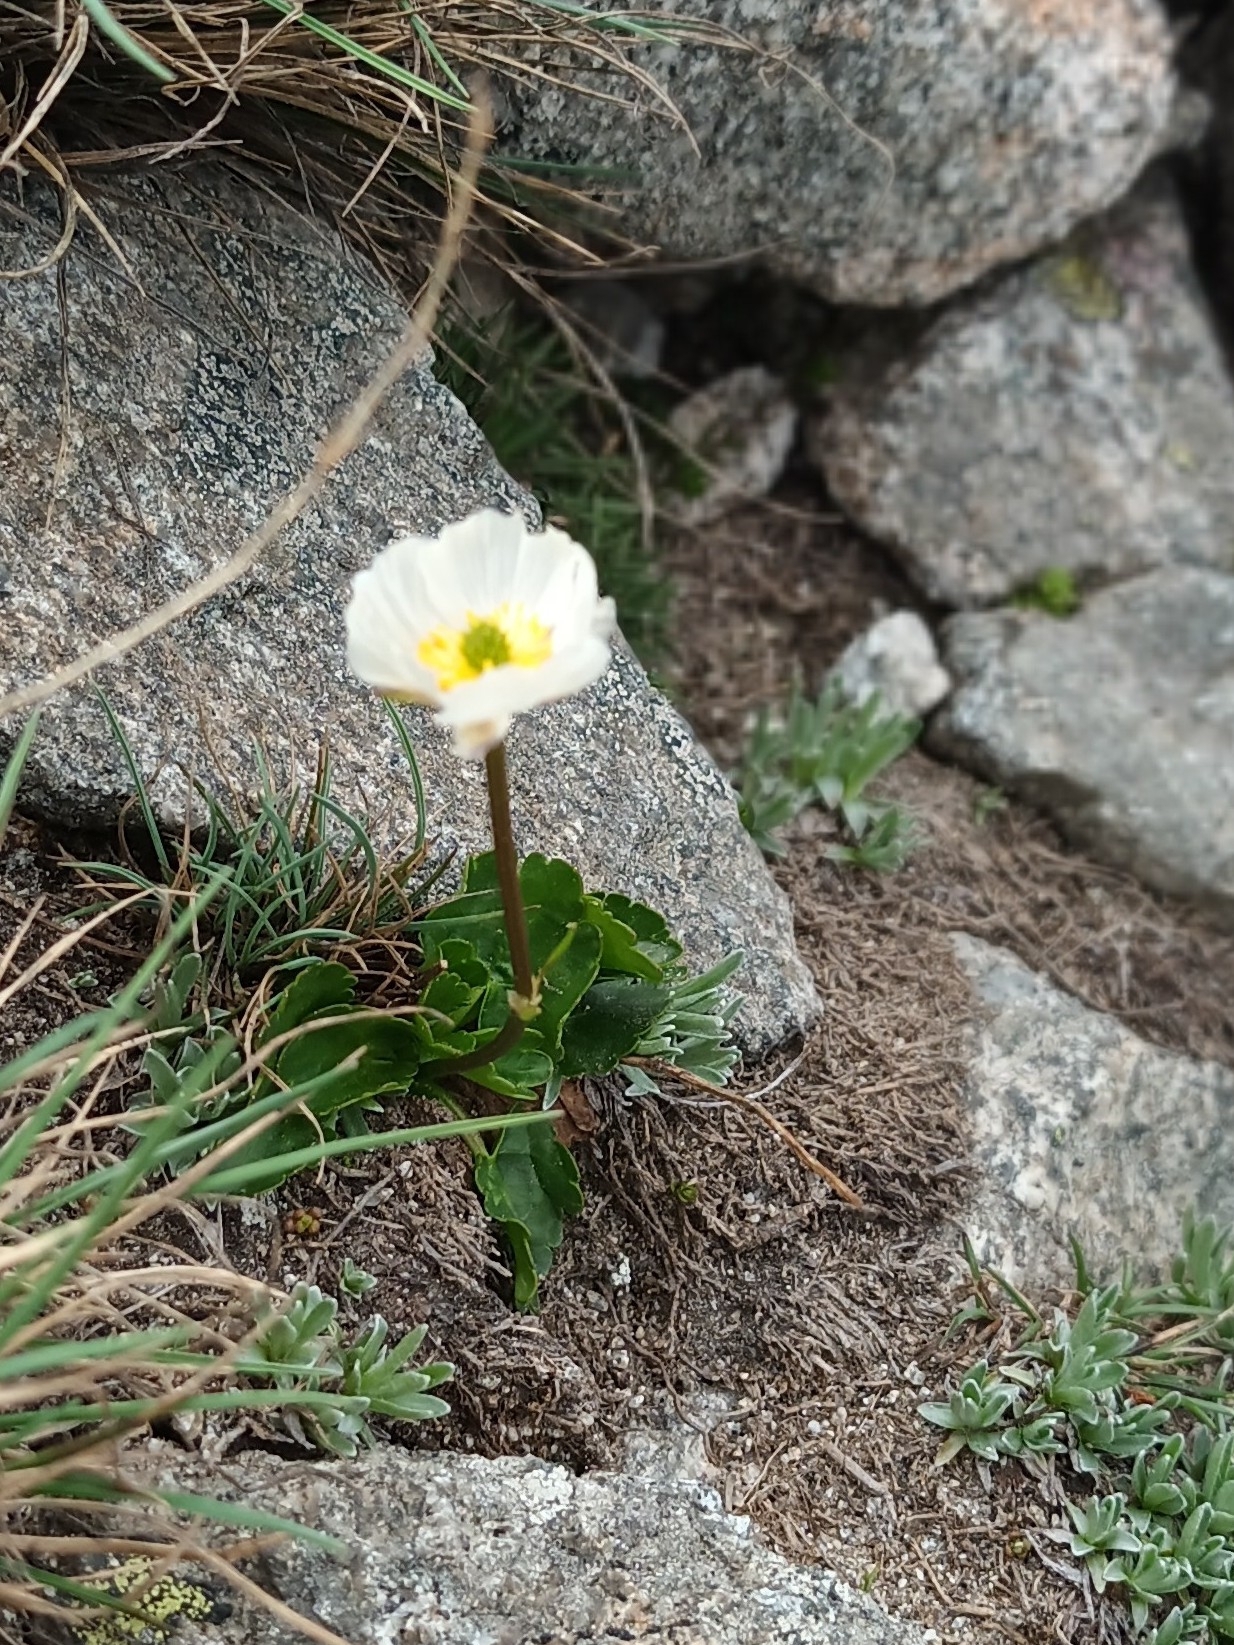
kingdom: Plantae
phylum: Tracheophyta
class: Magnoliopsida
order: Ranunculales
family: Ranunculaceae
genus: Ranunculus
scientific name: Ranunculus crenatus
